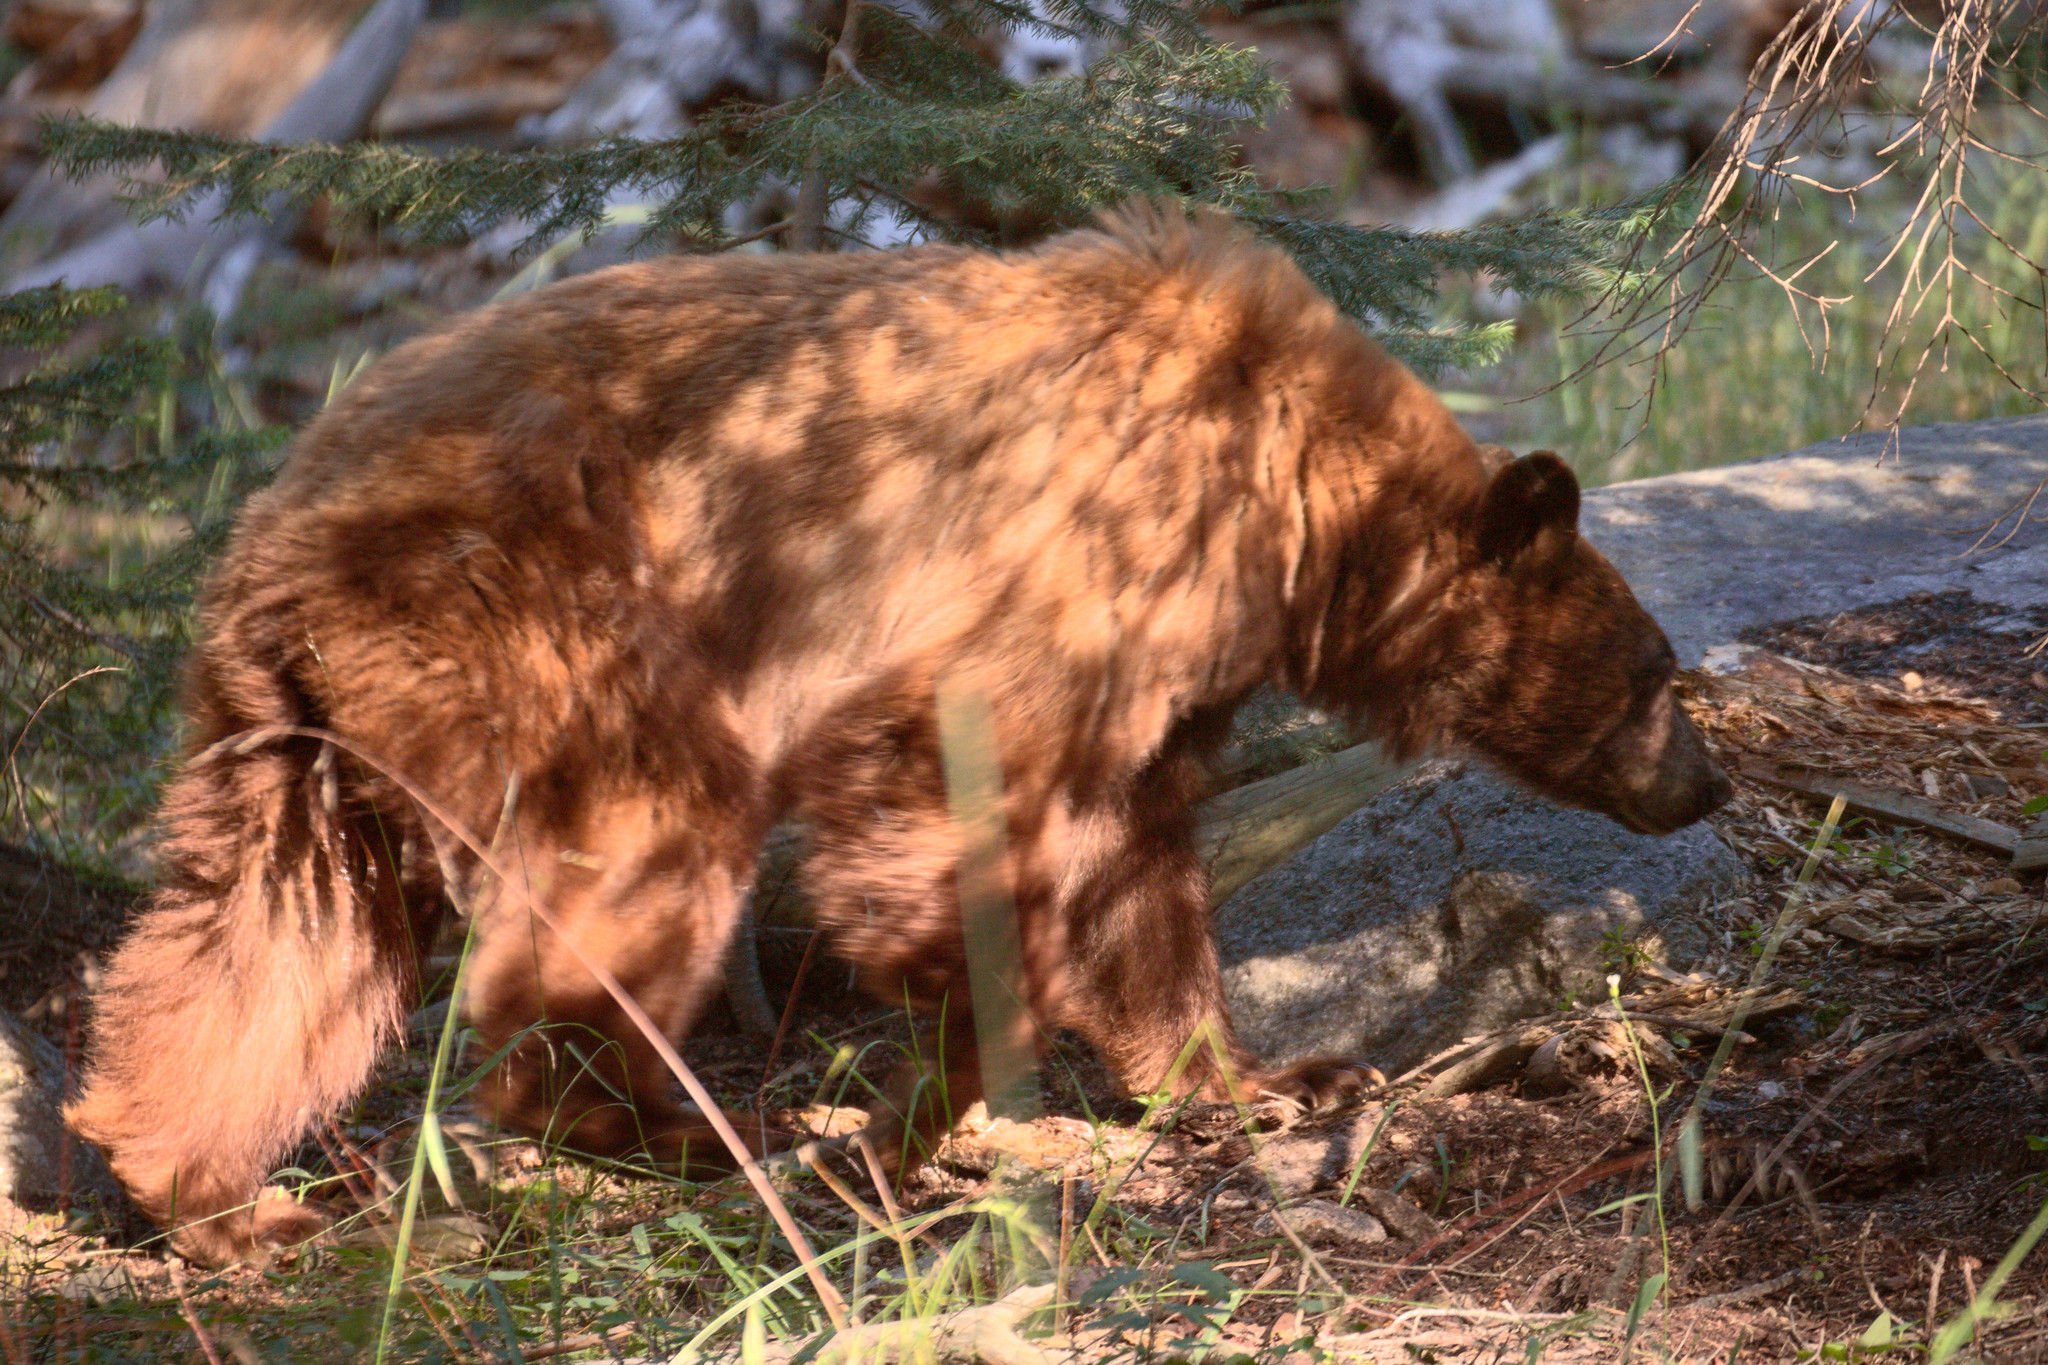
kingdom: Animalia
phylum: Chordata
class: Mammalia
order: Carnivora
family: Ursidae
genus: Ursus
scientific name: Ursus americanus
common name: American black bear
